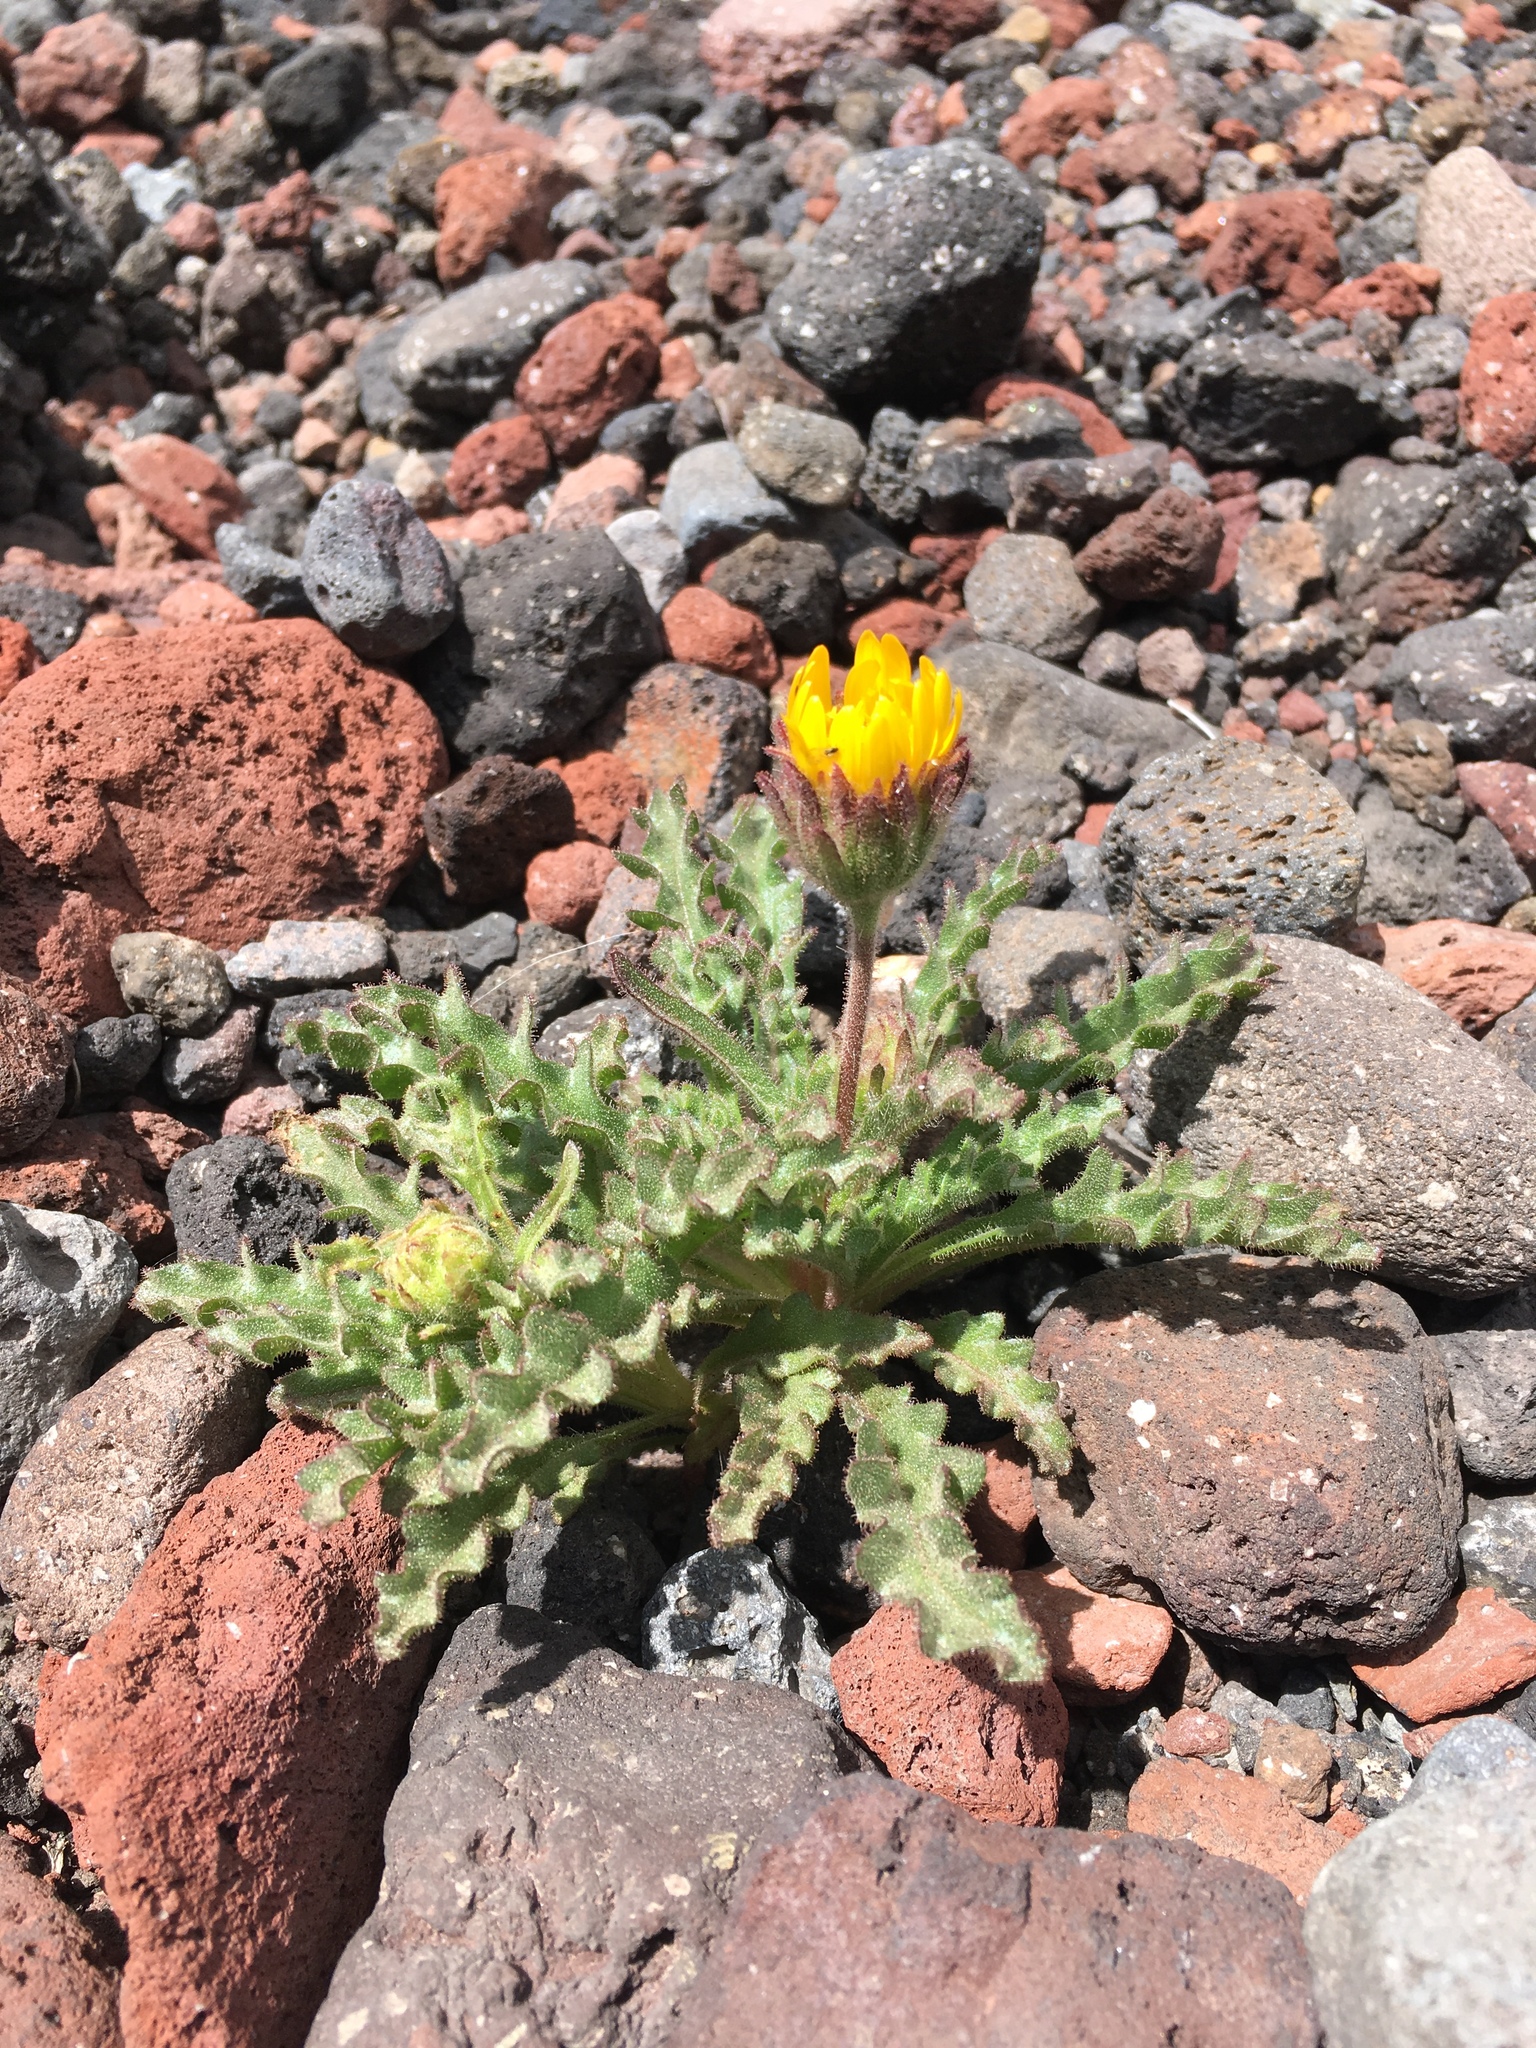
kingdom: Plantae
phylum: Tracheophyta
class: Magnoliopsida
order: Asterales
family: Asteraceae
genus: Hulsea
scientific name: Hulsea nana
